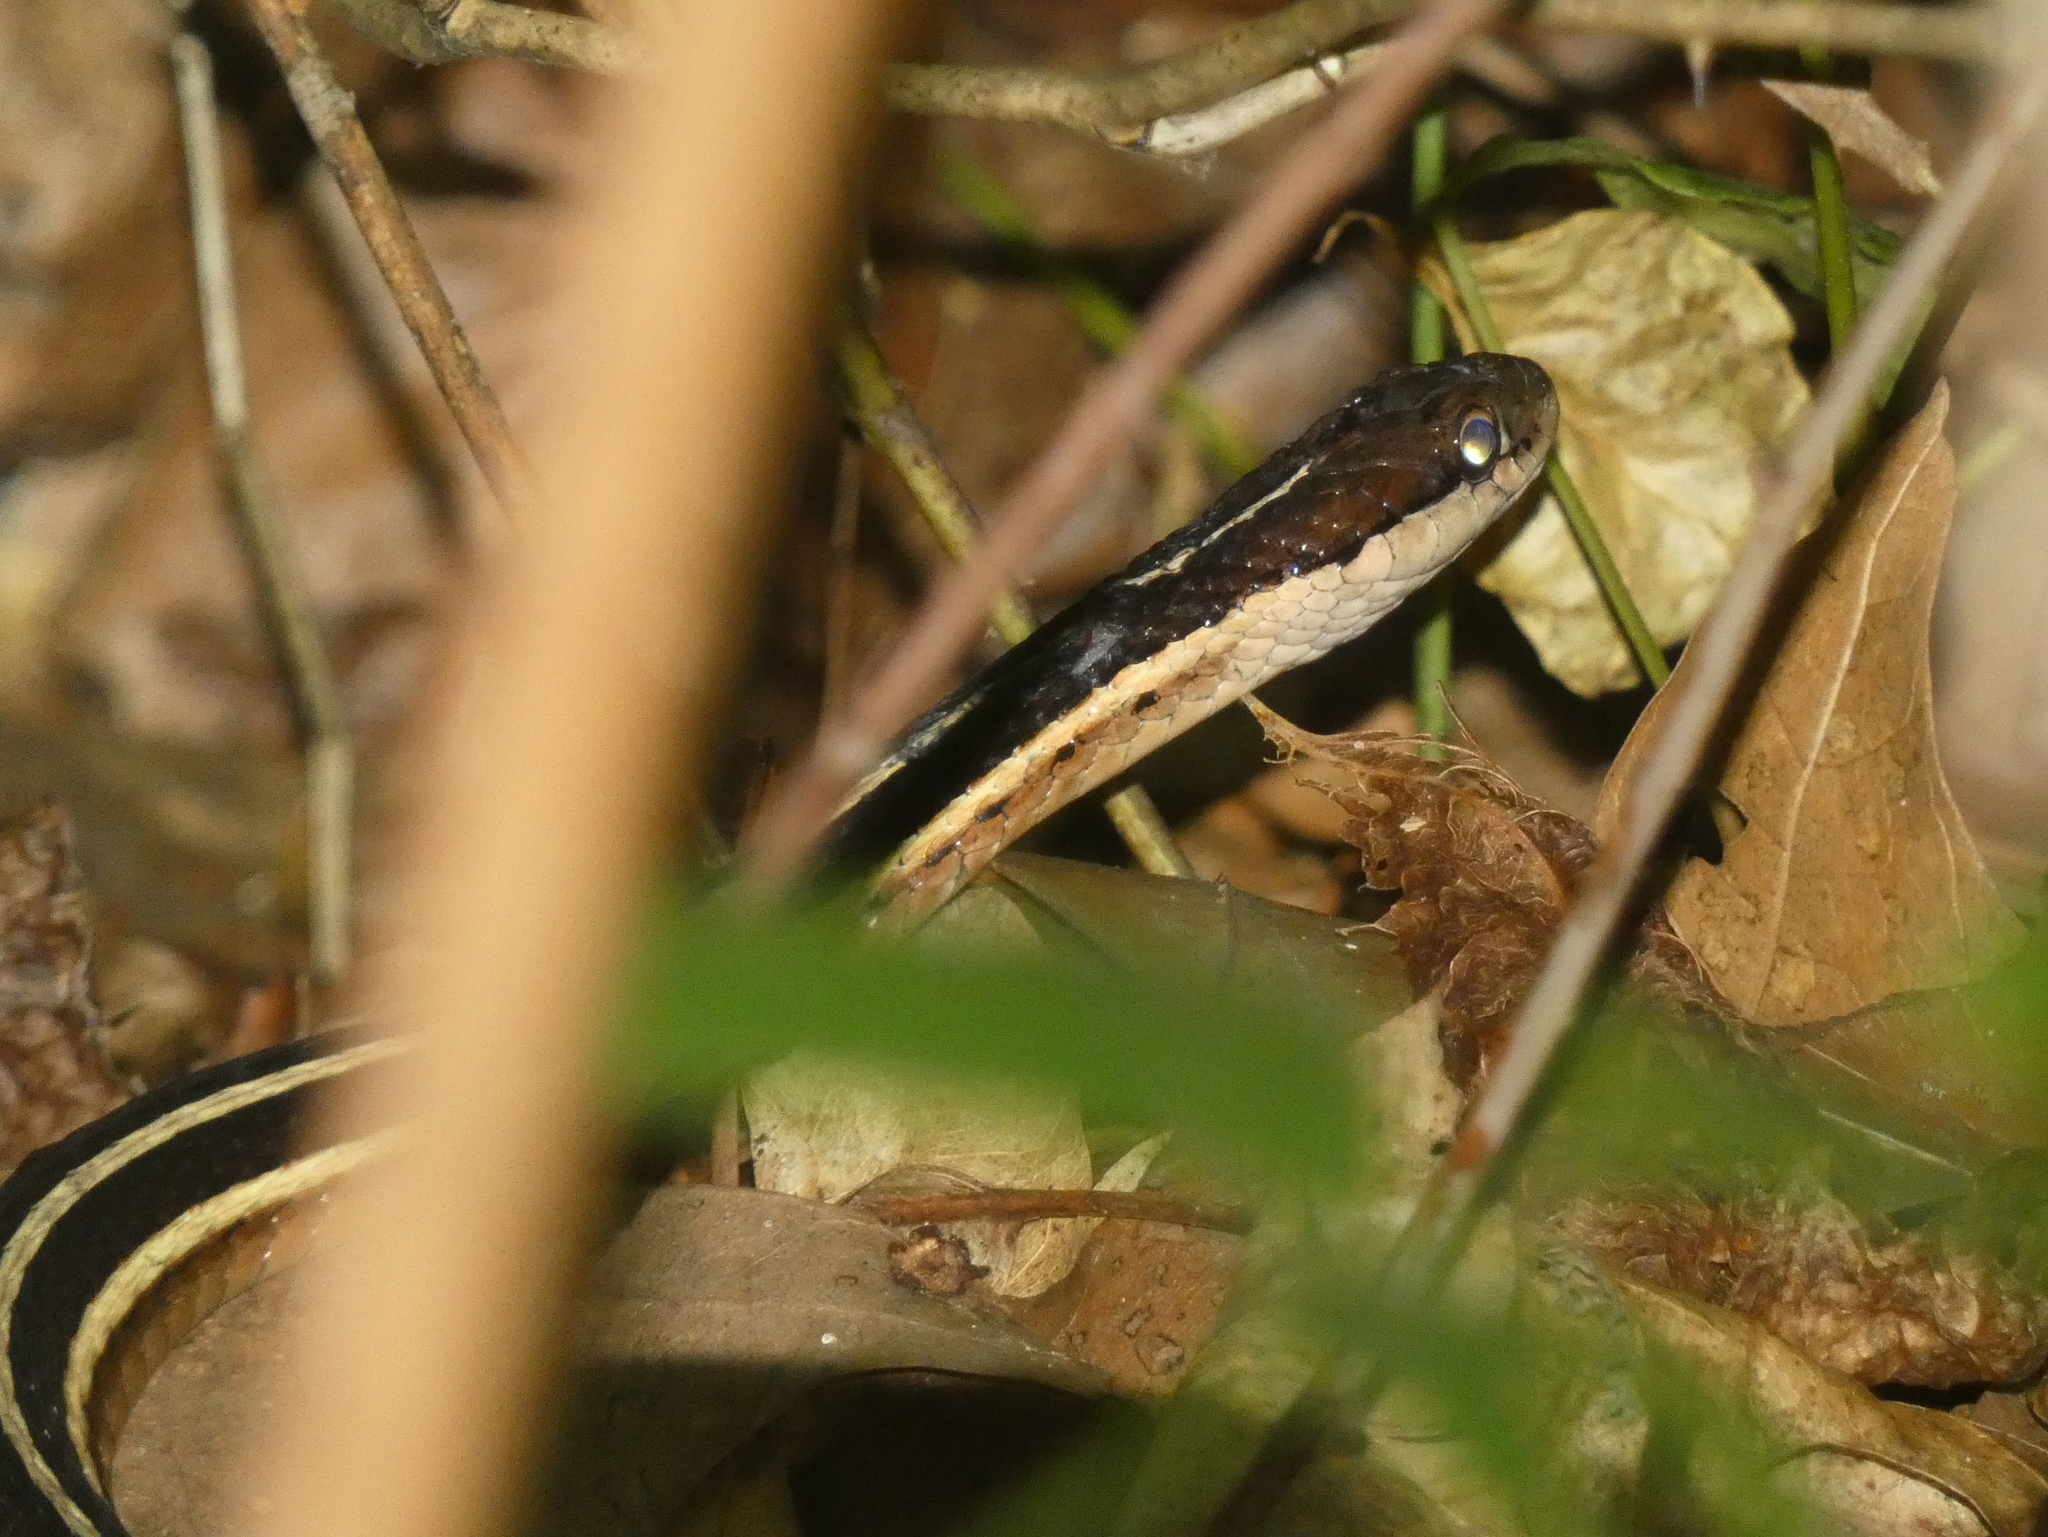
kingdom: Animalia
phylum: Chordata
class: Squamata
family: Colubridae
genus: Thamnophis
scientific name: Thamnophis saurita
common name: Eastern ribbonsnake
